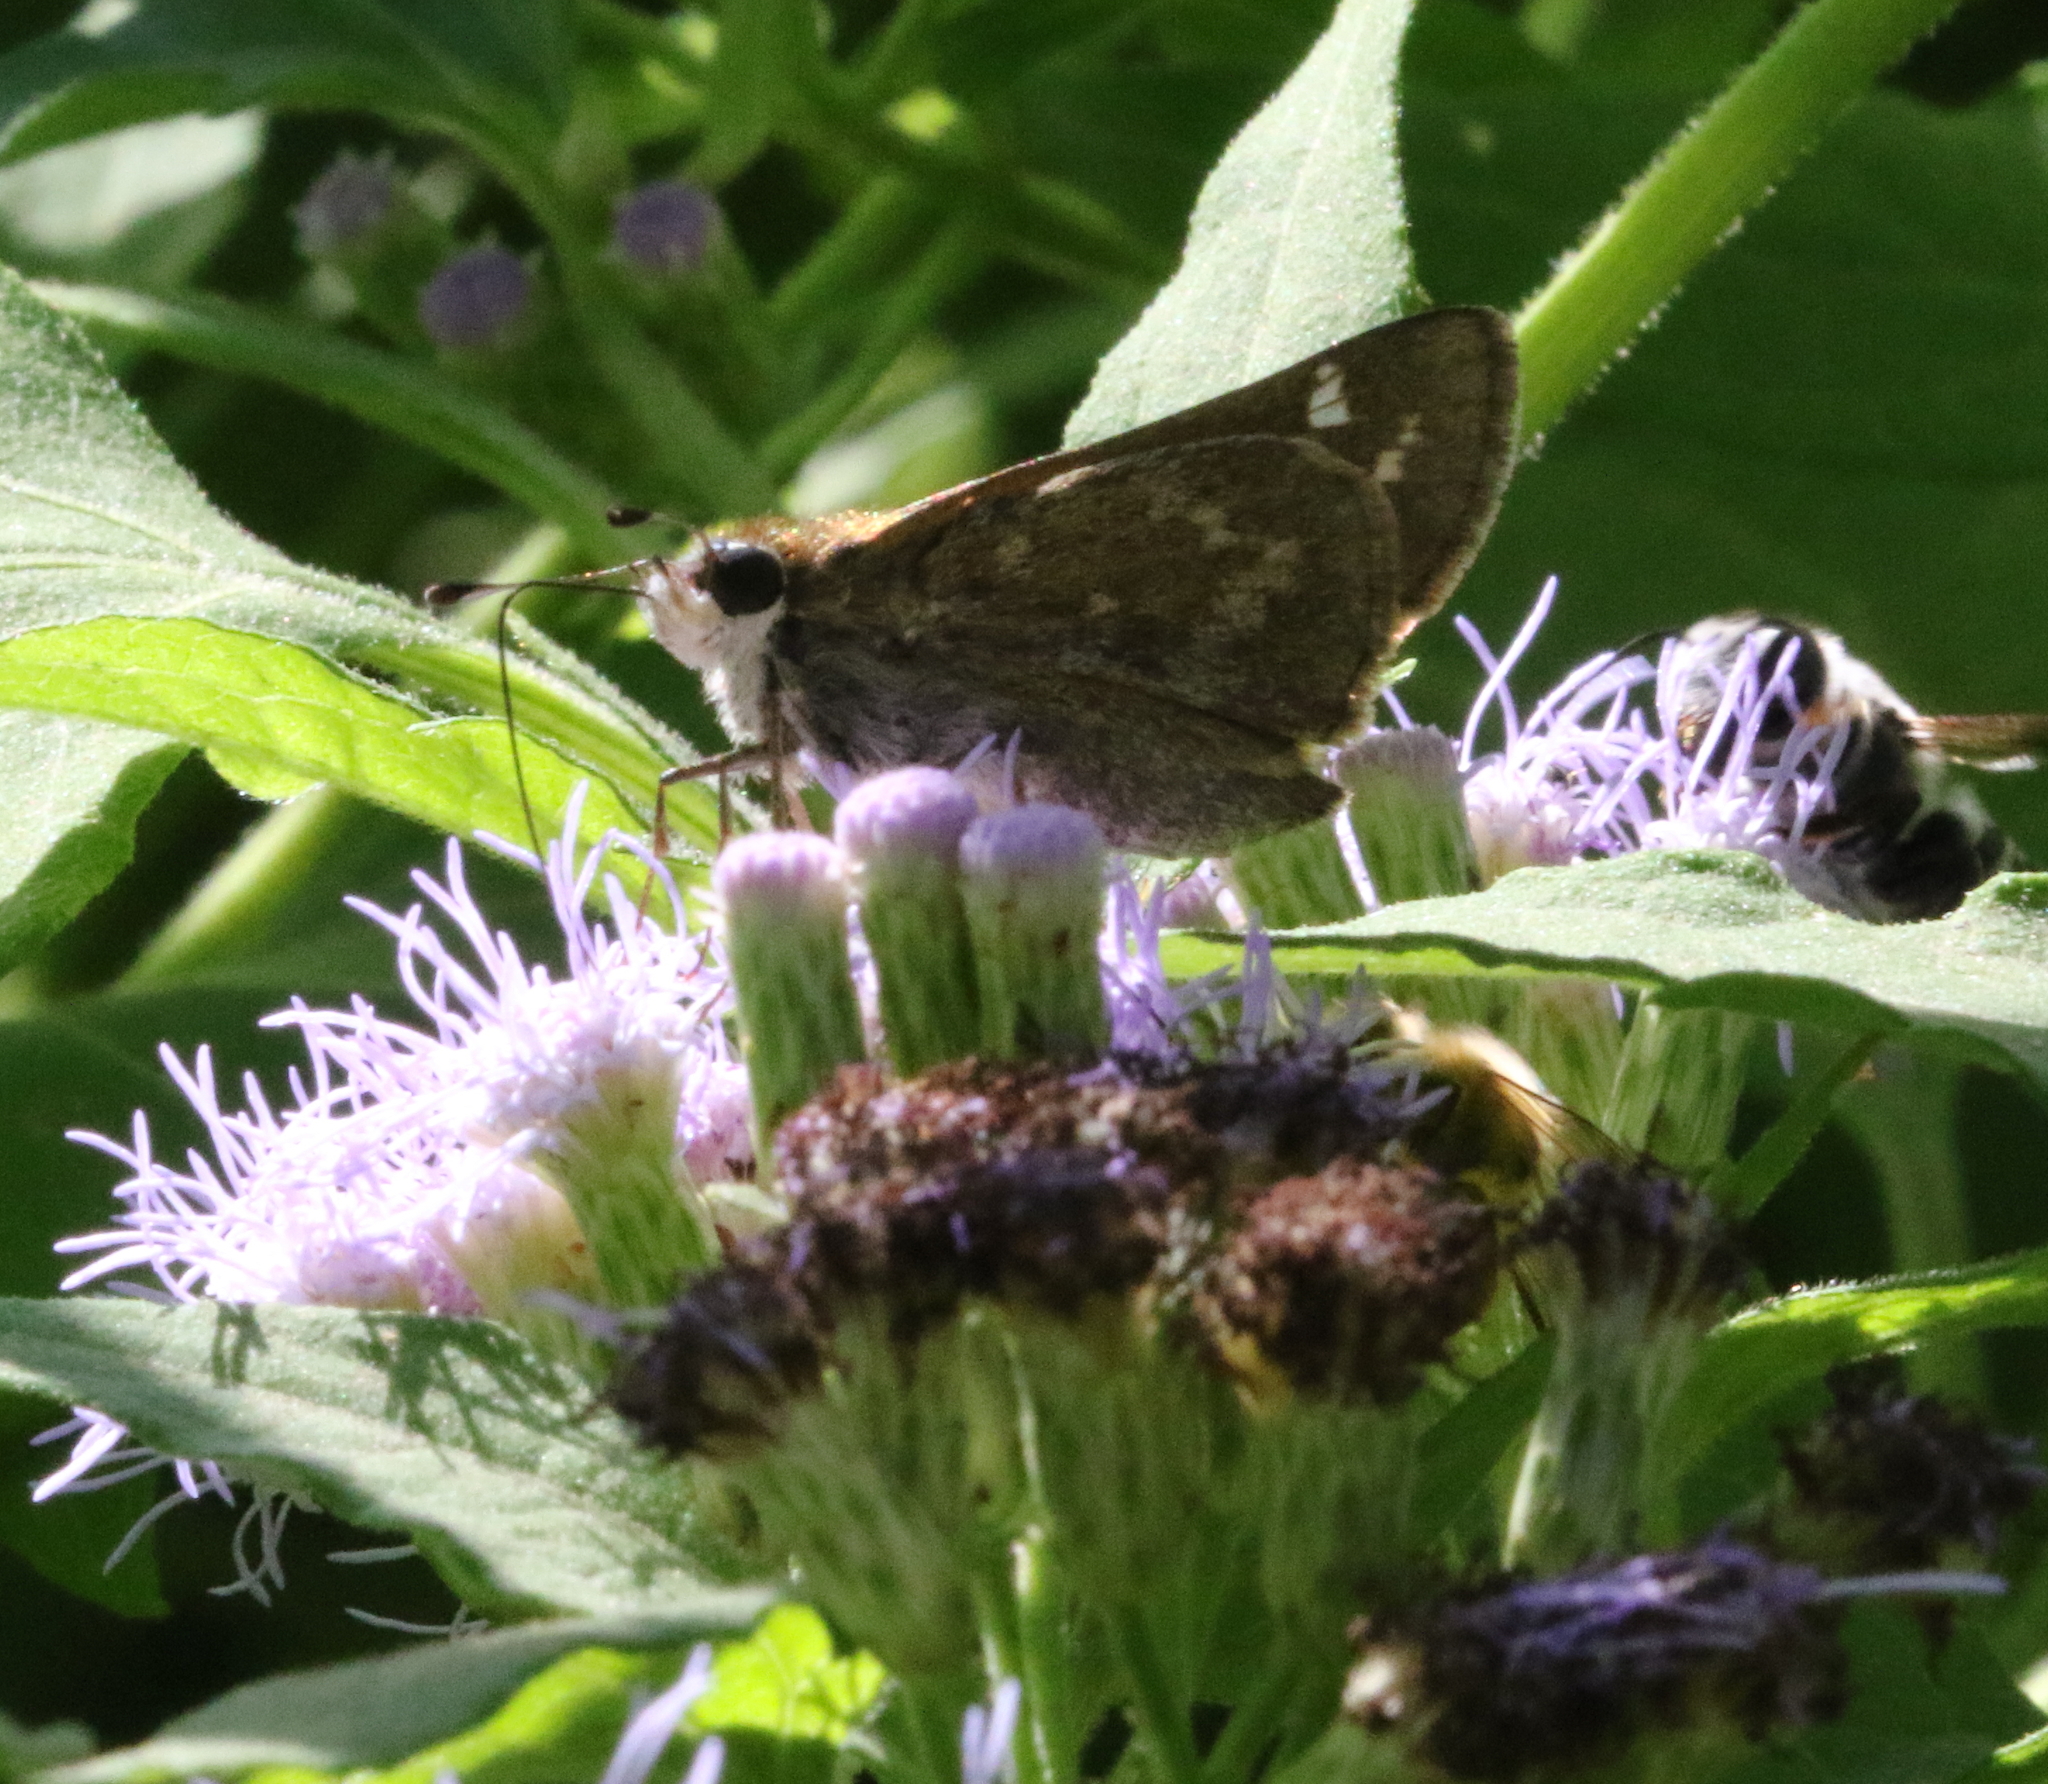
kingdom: Animalia
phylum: Arthropoda
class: Insecta
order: Lepidoptera
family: Hesperiidae
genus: Atalopedes
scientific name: Atalopedes
